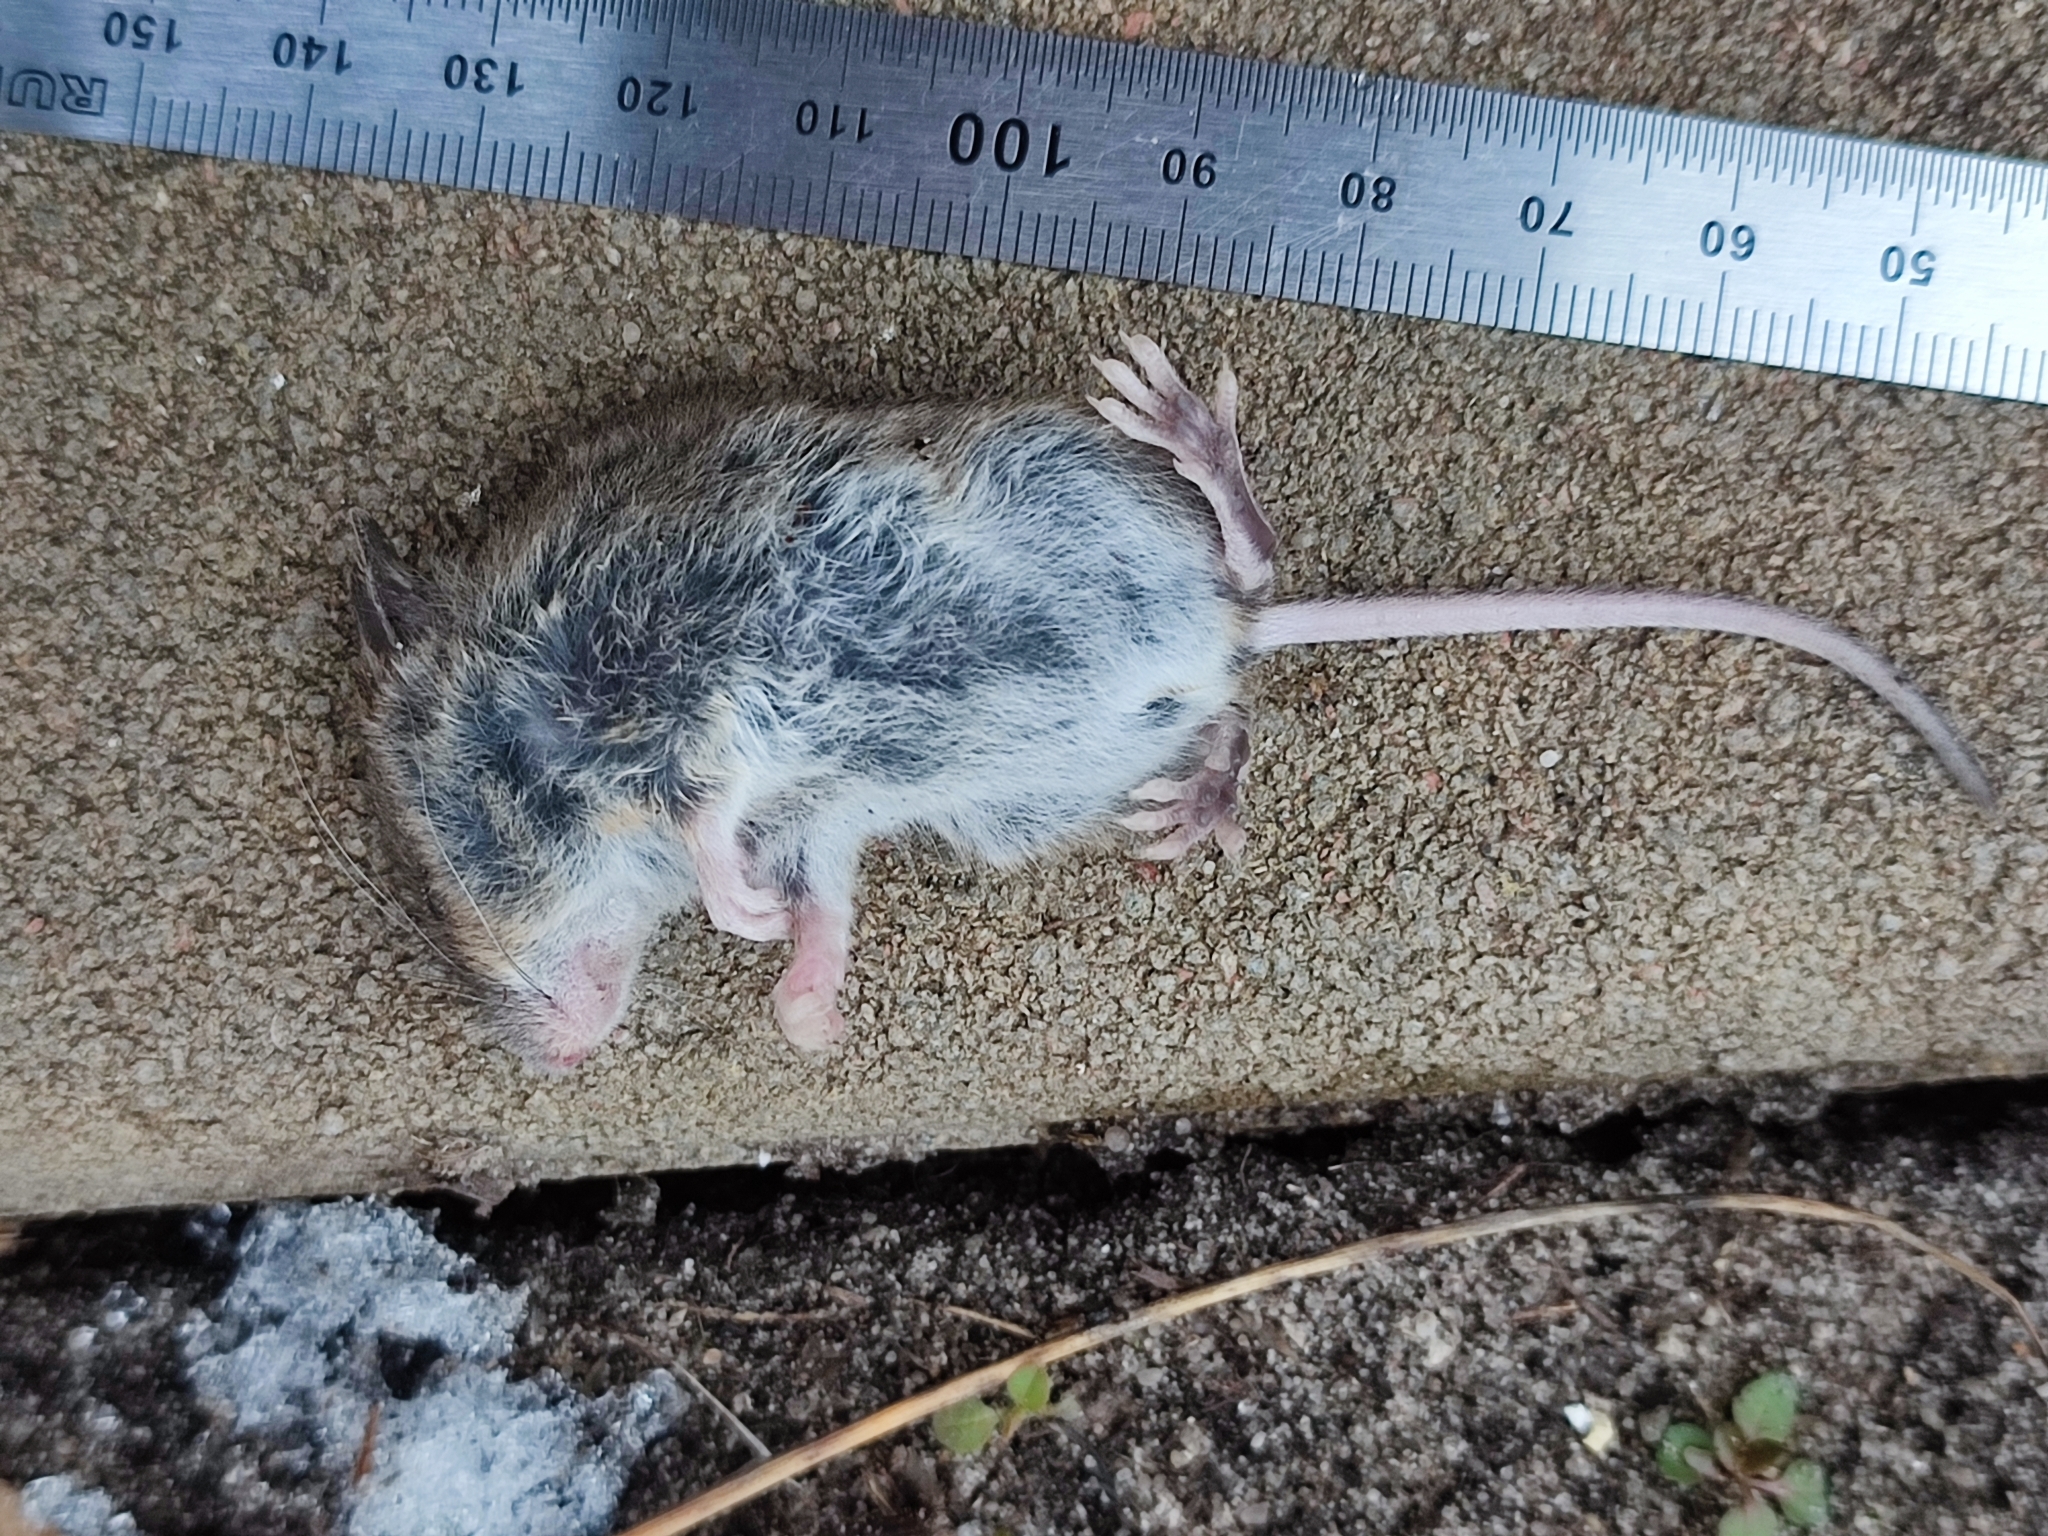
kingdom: Animalia
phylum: Chordata
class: Mammalia
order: Rodentia
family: Muridae
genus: Apodemus
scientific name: Apodemus uralensis
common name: Herb field mouse
